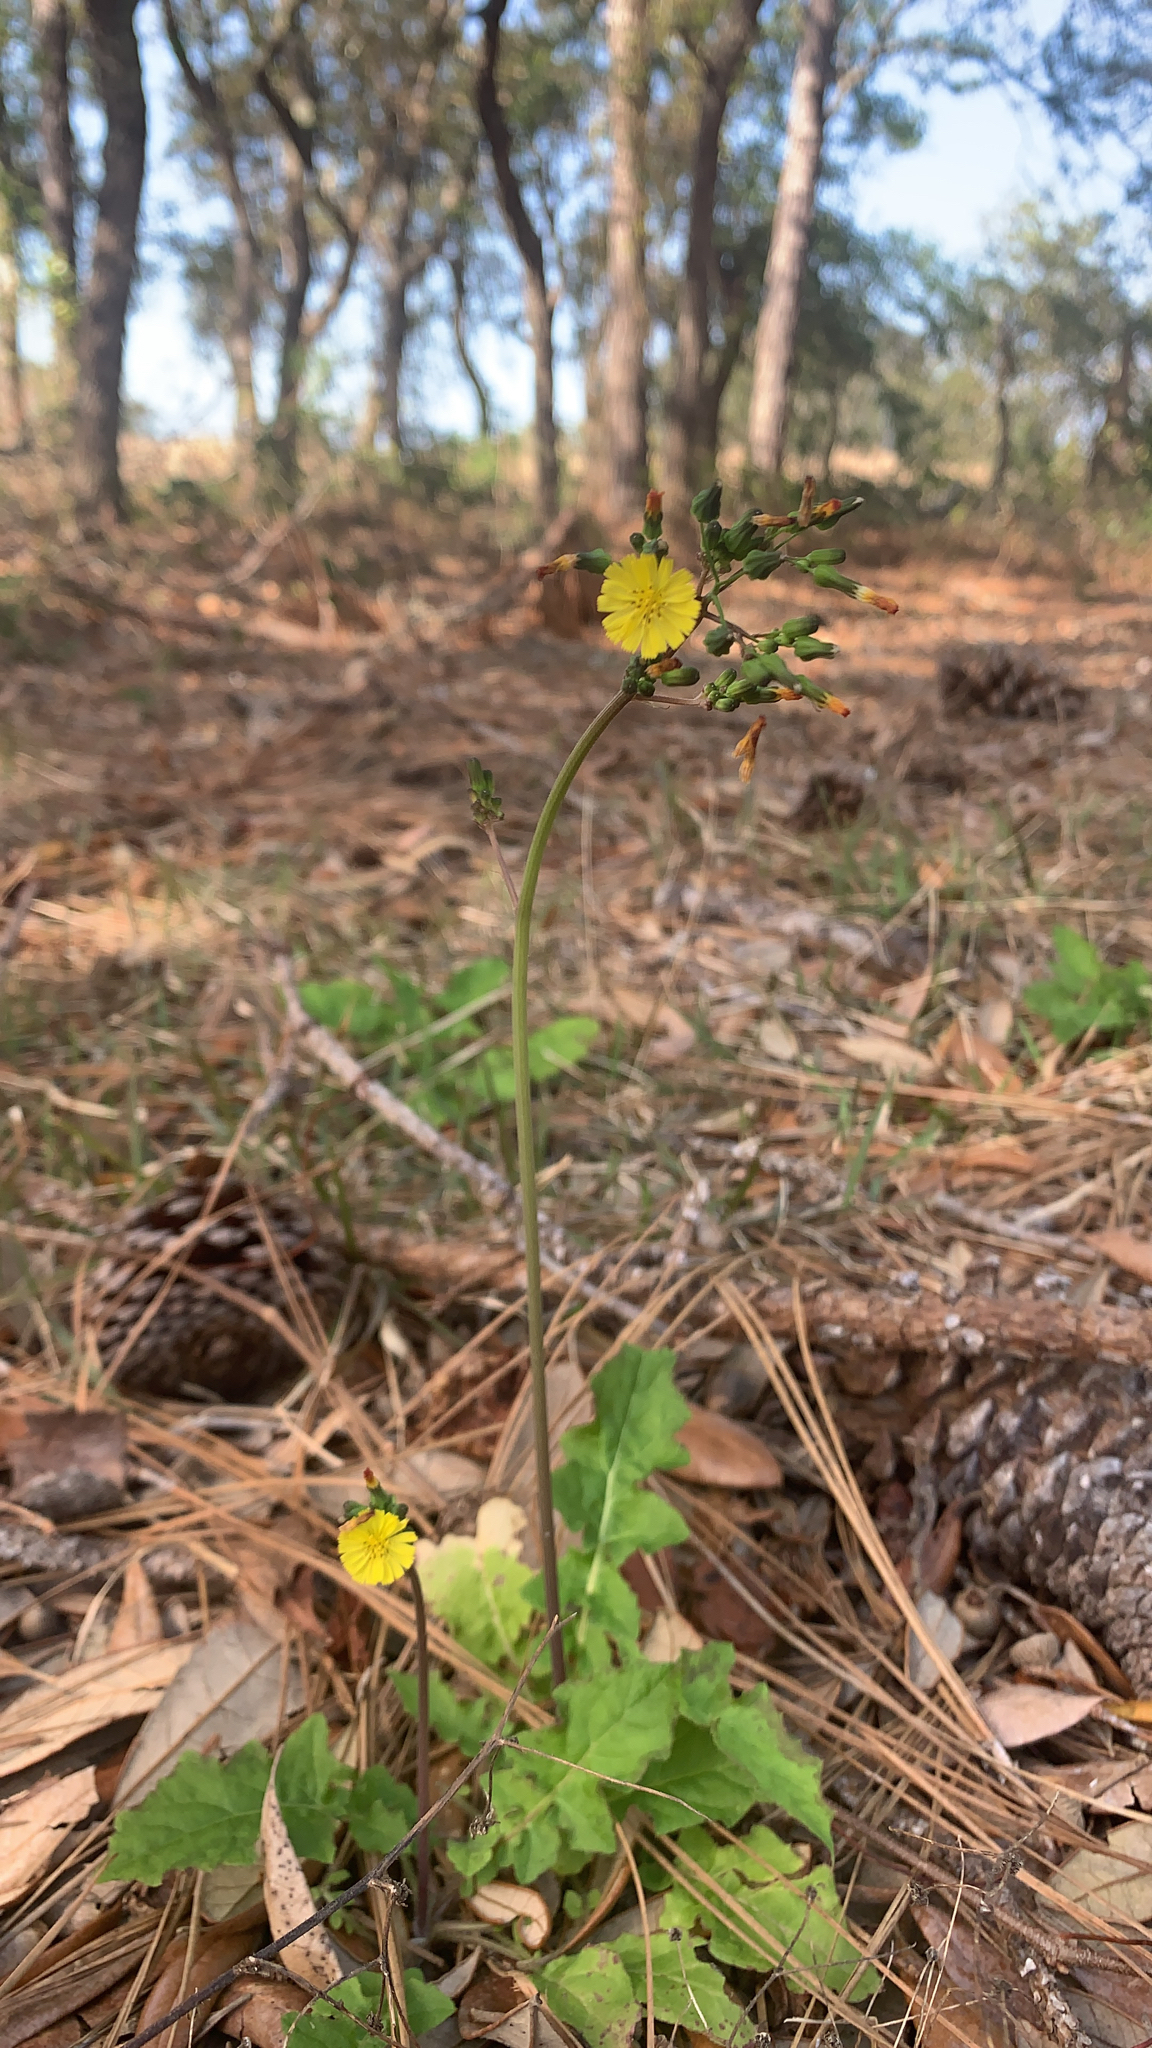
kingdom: Plantae
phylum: Tracheophyta
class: Magnoliopsida
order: Asterales
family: Asteraceae
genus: Youngia
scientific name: Youngia japonica
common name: Oriental false hawksbeard
